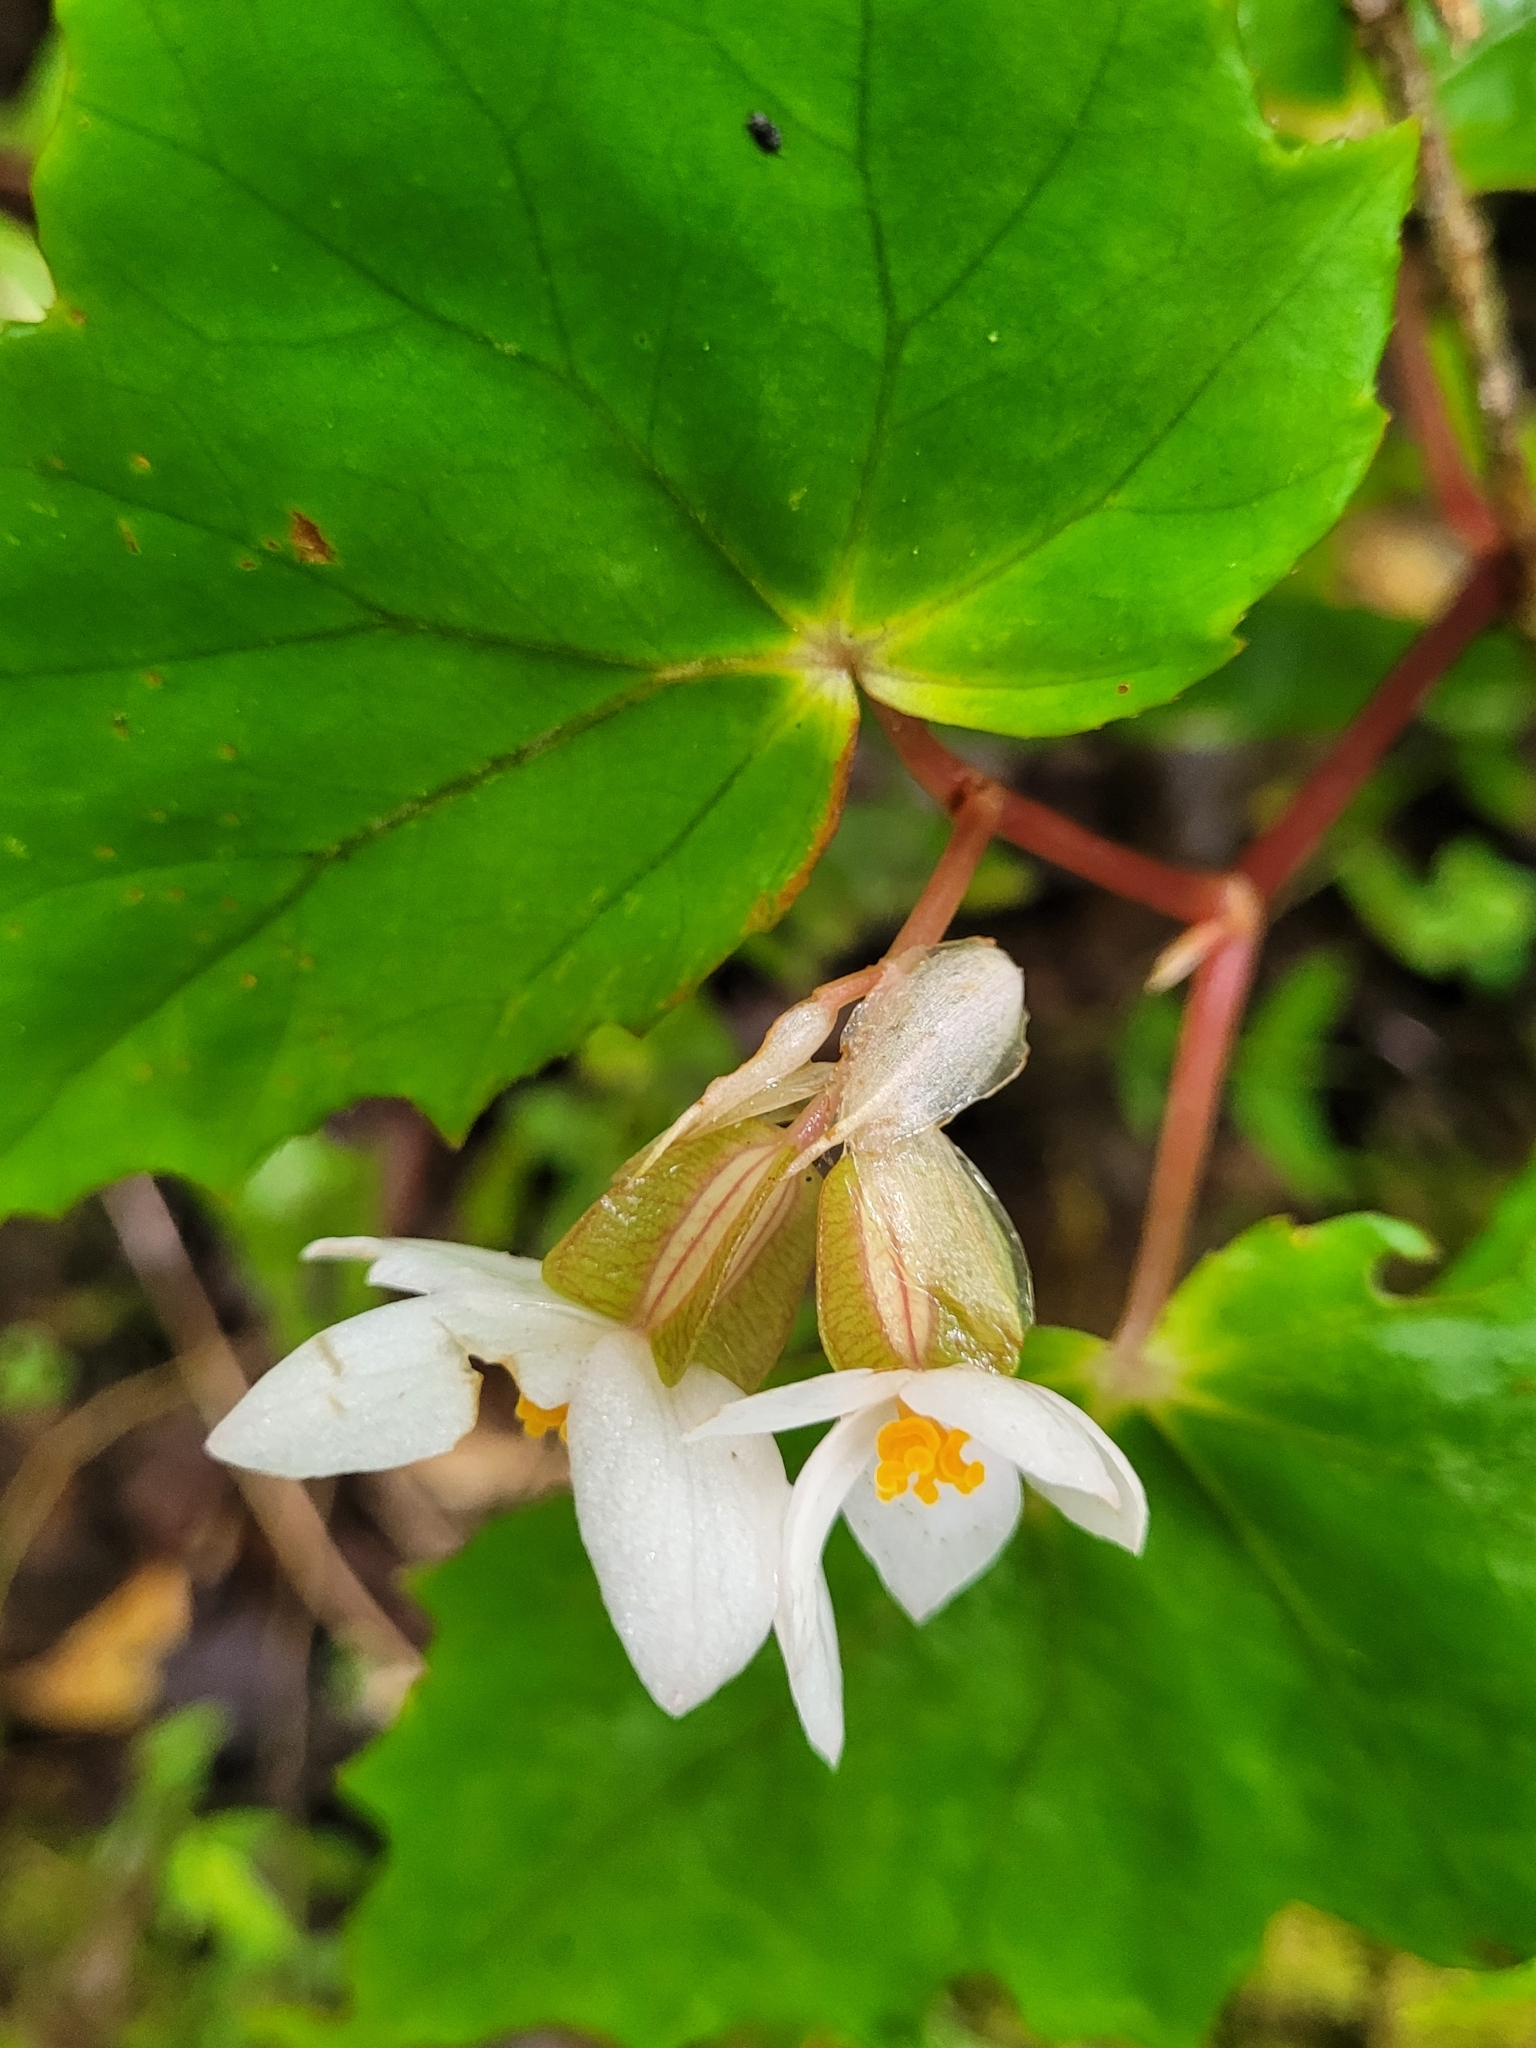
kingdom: Plantae
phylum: Tracheophyta
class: Magnoliopsida
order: Cucurbitales
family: Begoniaceae
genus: Begonia
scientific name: Begonia torajana
